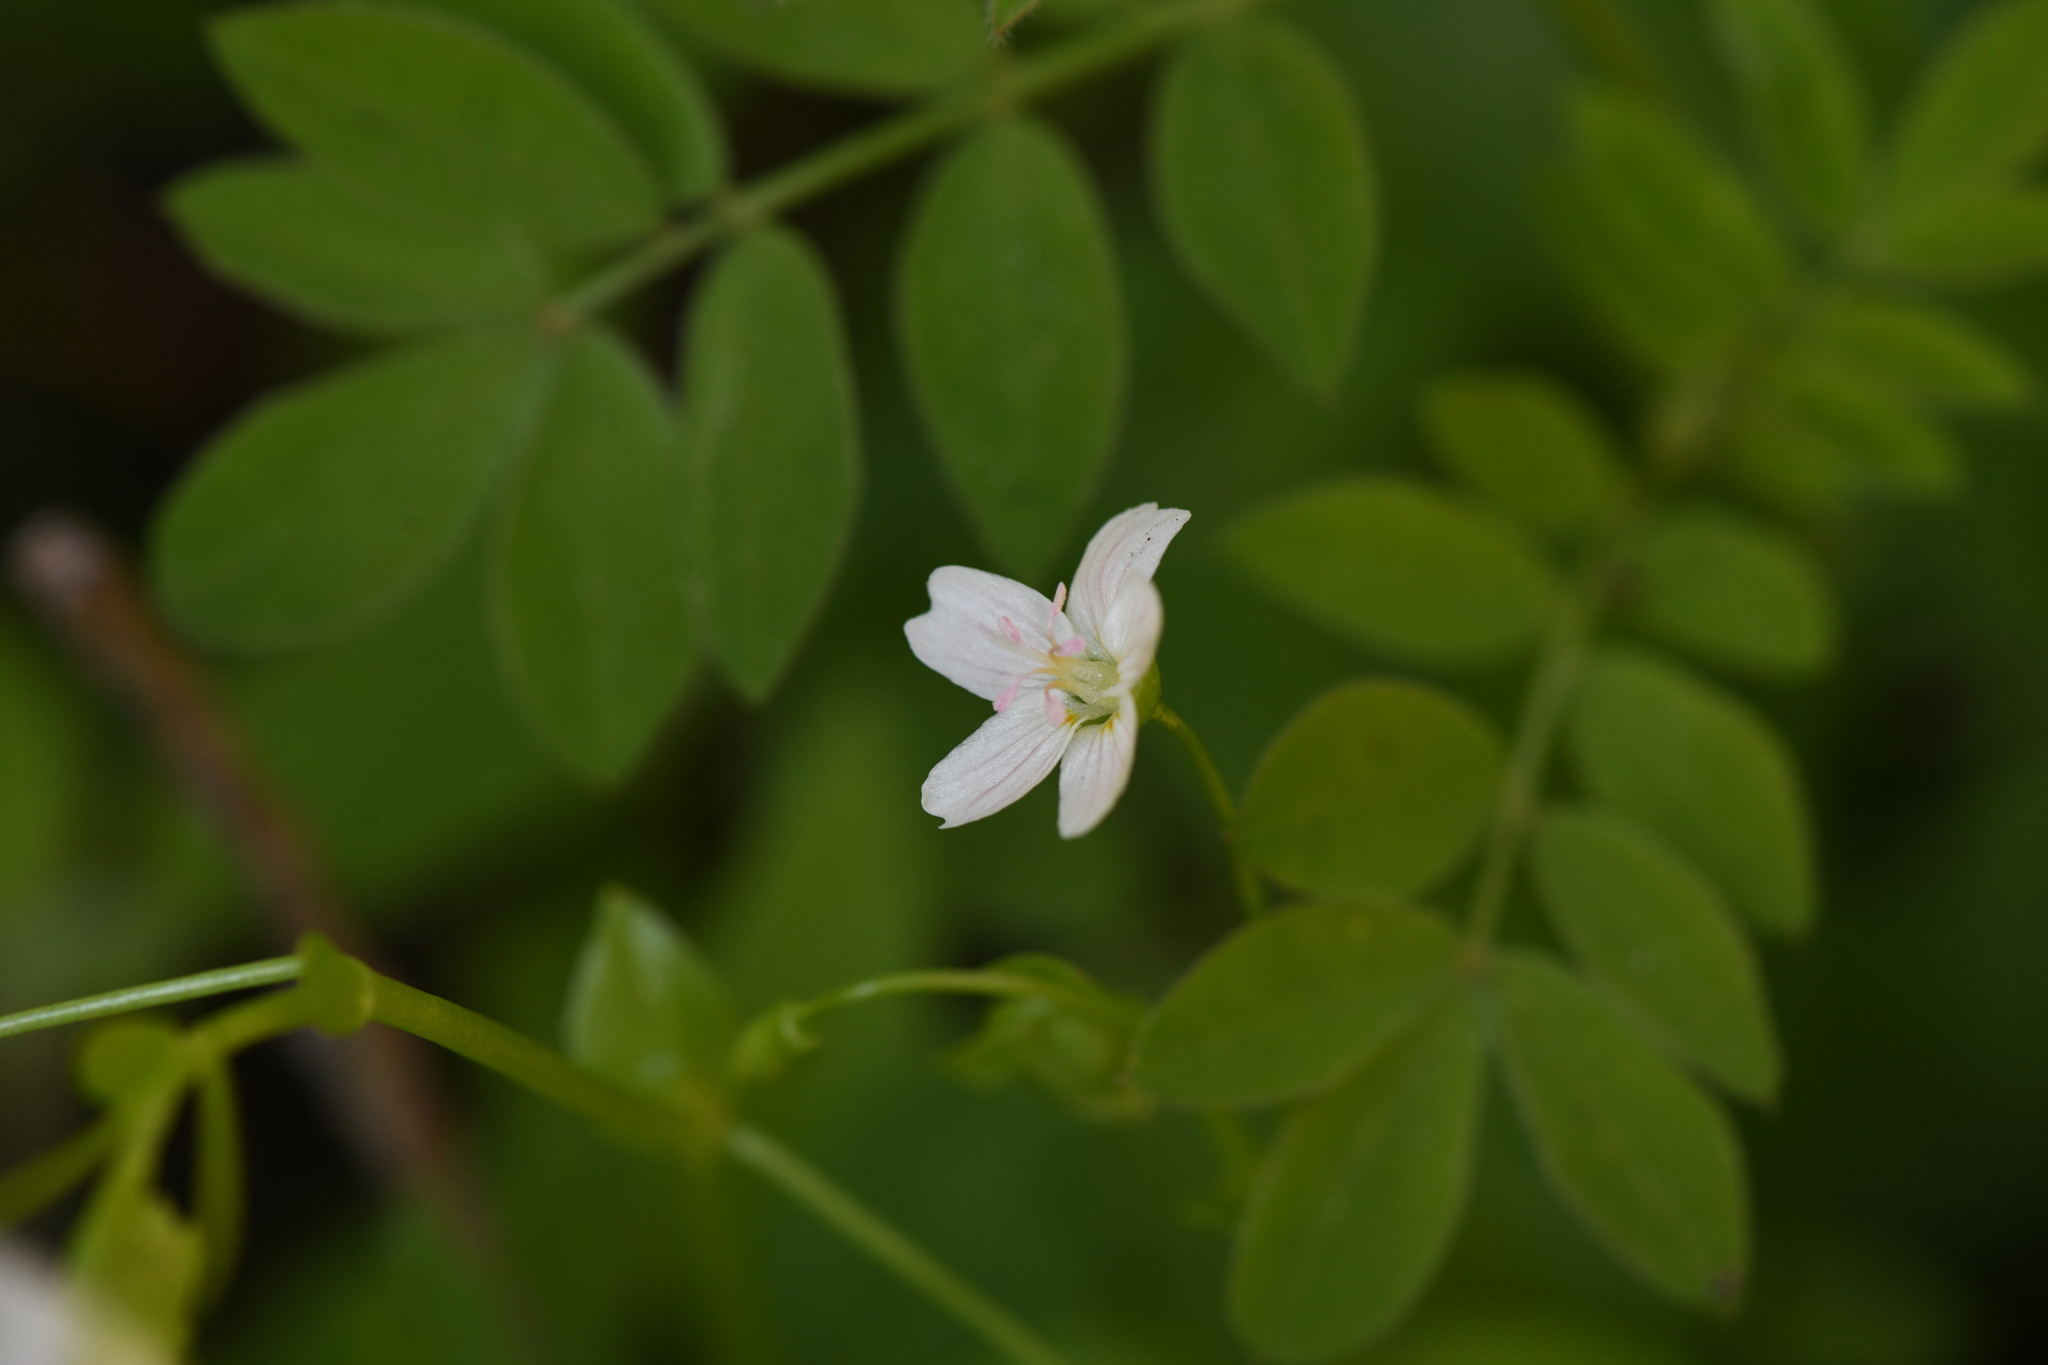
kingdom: Plantae
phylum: Tracheophyta
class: Magnoliopsida
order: Caryophyllales
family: Montiaceae
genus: Claytonia
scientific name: Claytonia palustris
